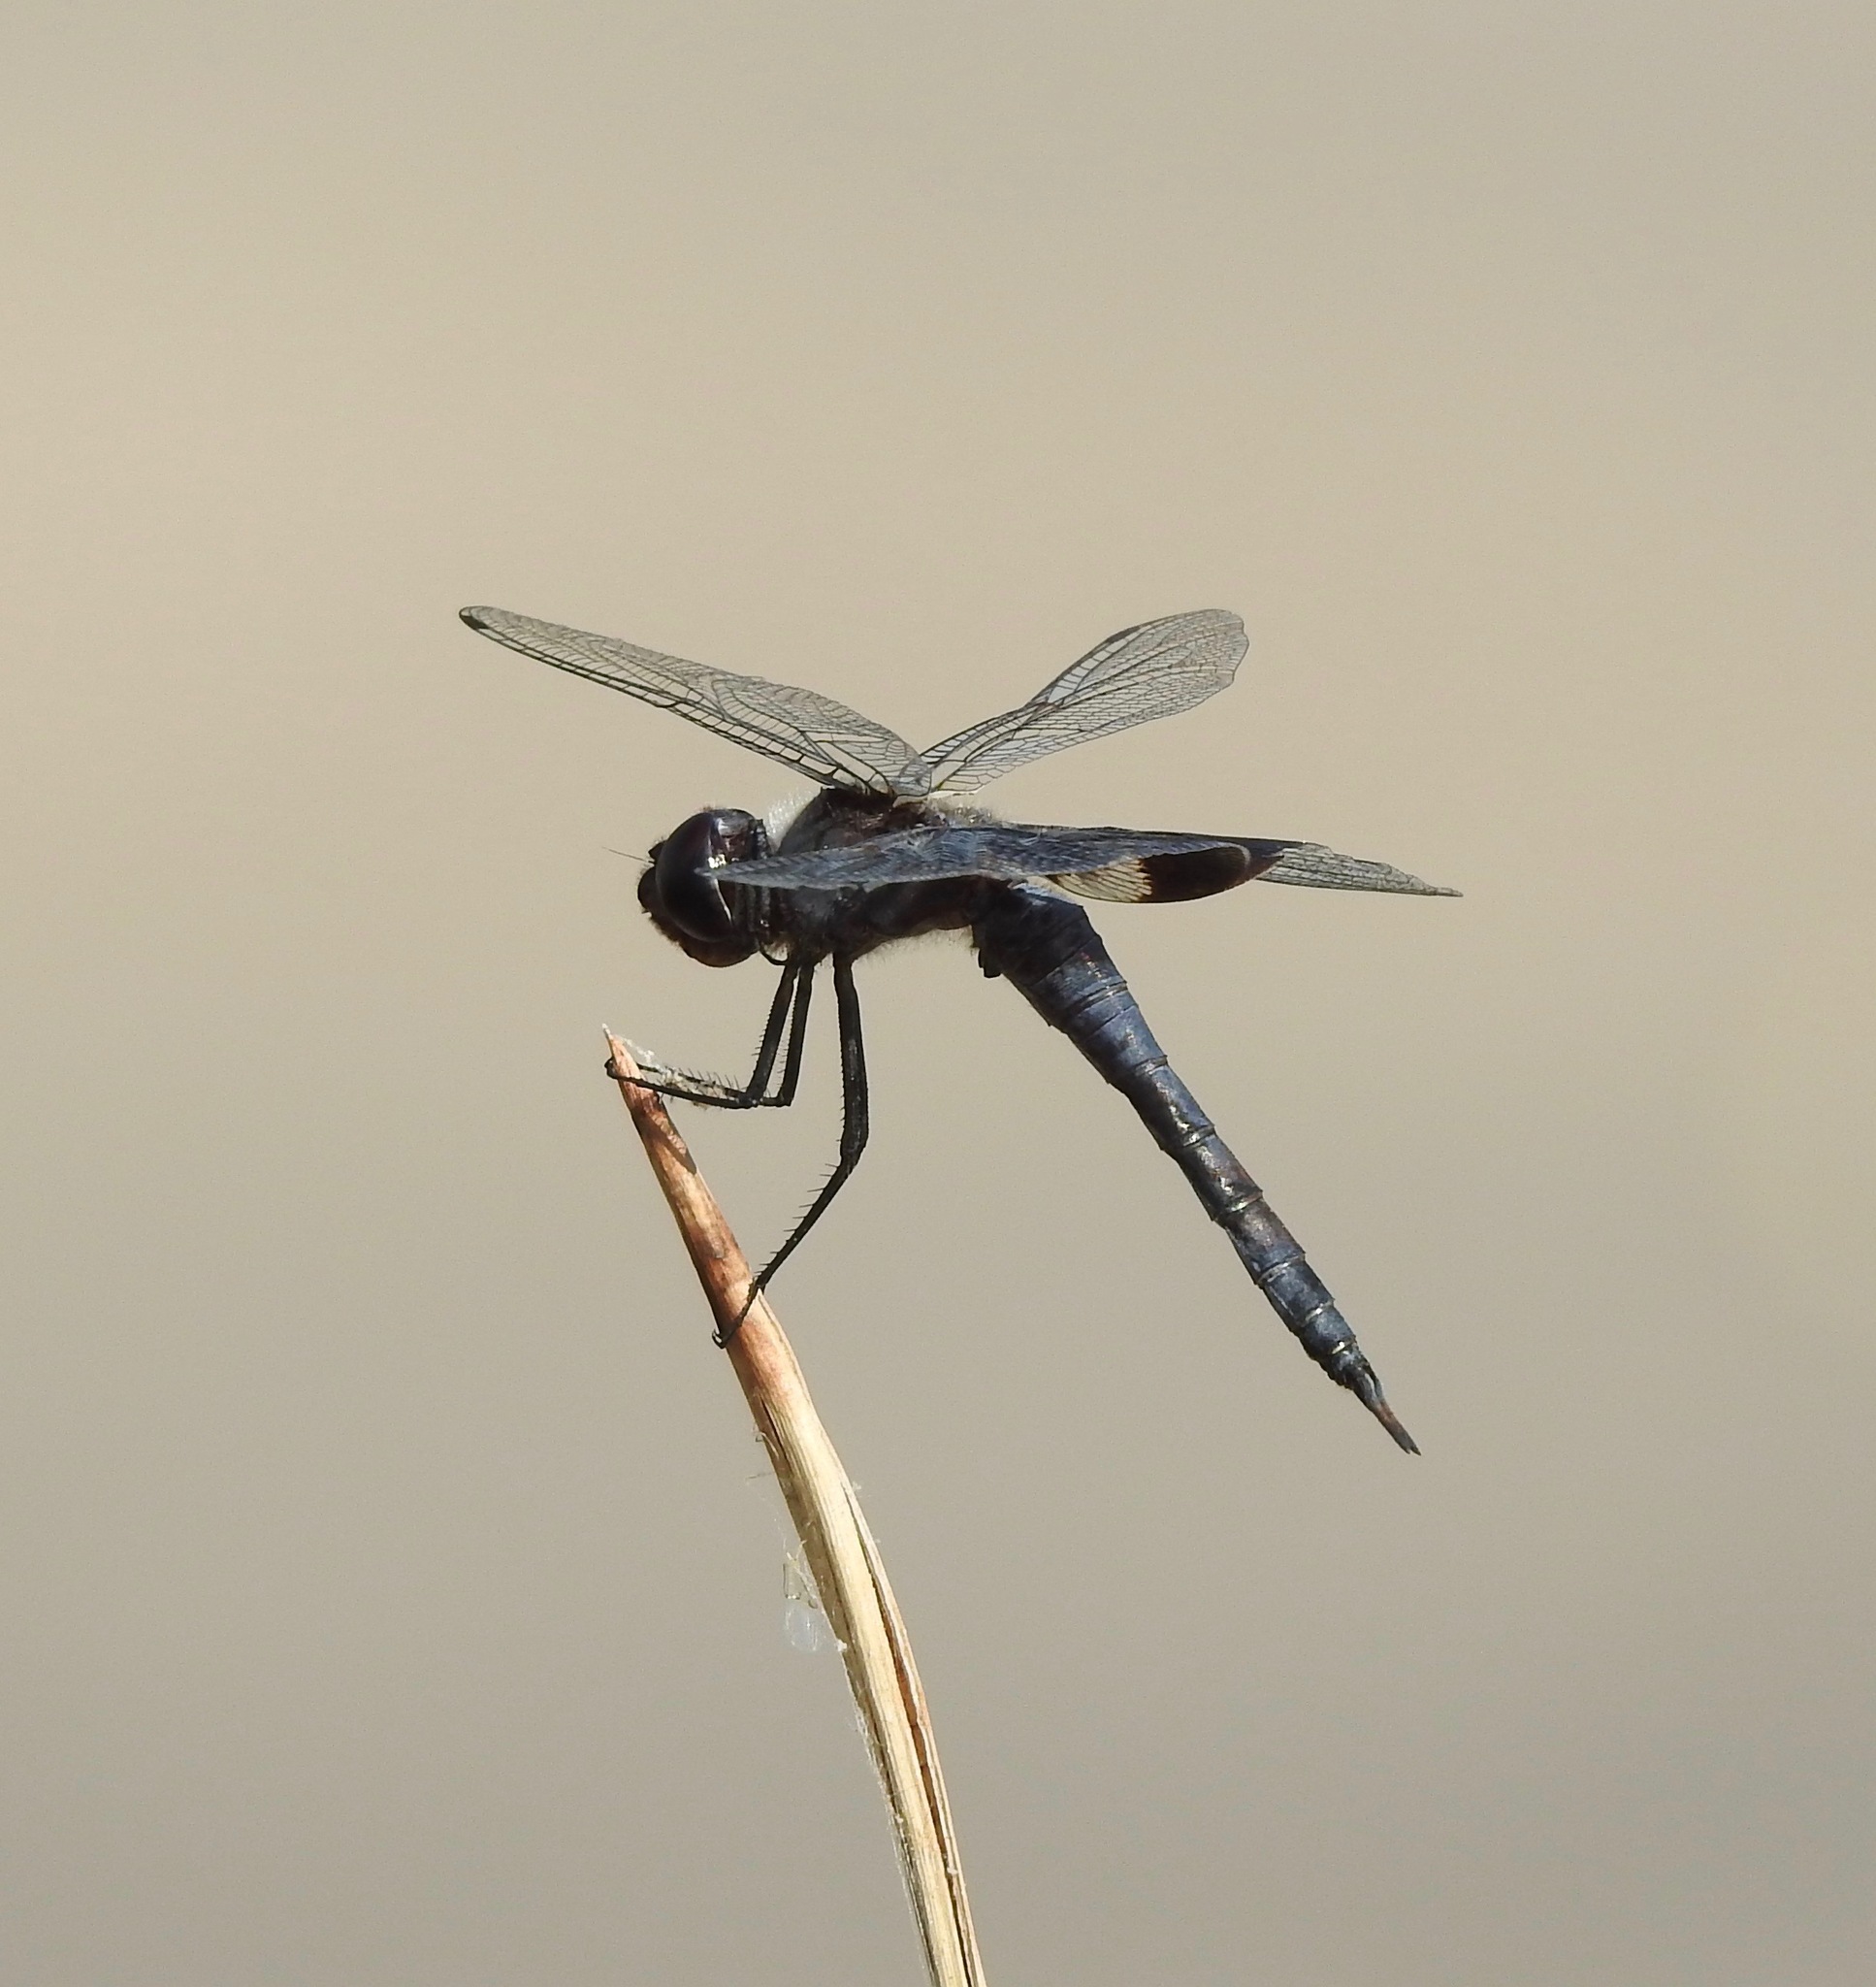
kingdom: Animalia
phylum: Arthropoda
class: Insecta
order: Odonata
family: Libellulidae
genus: Tramea
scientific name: Tramea lacerata
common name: Black saddlebags
